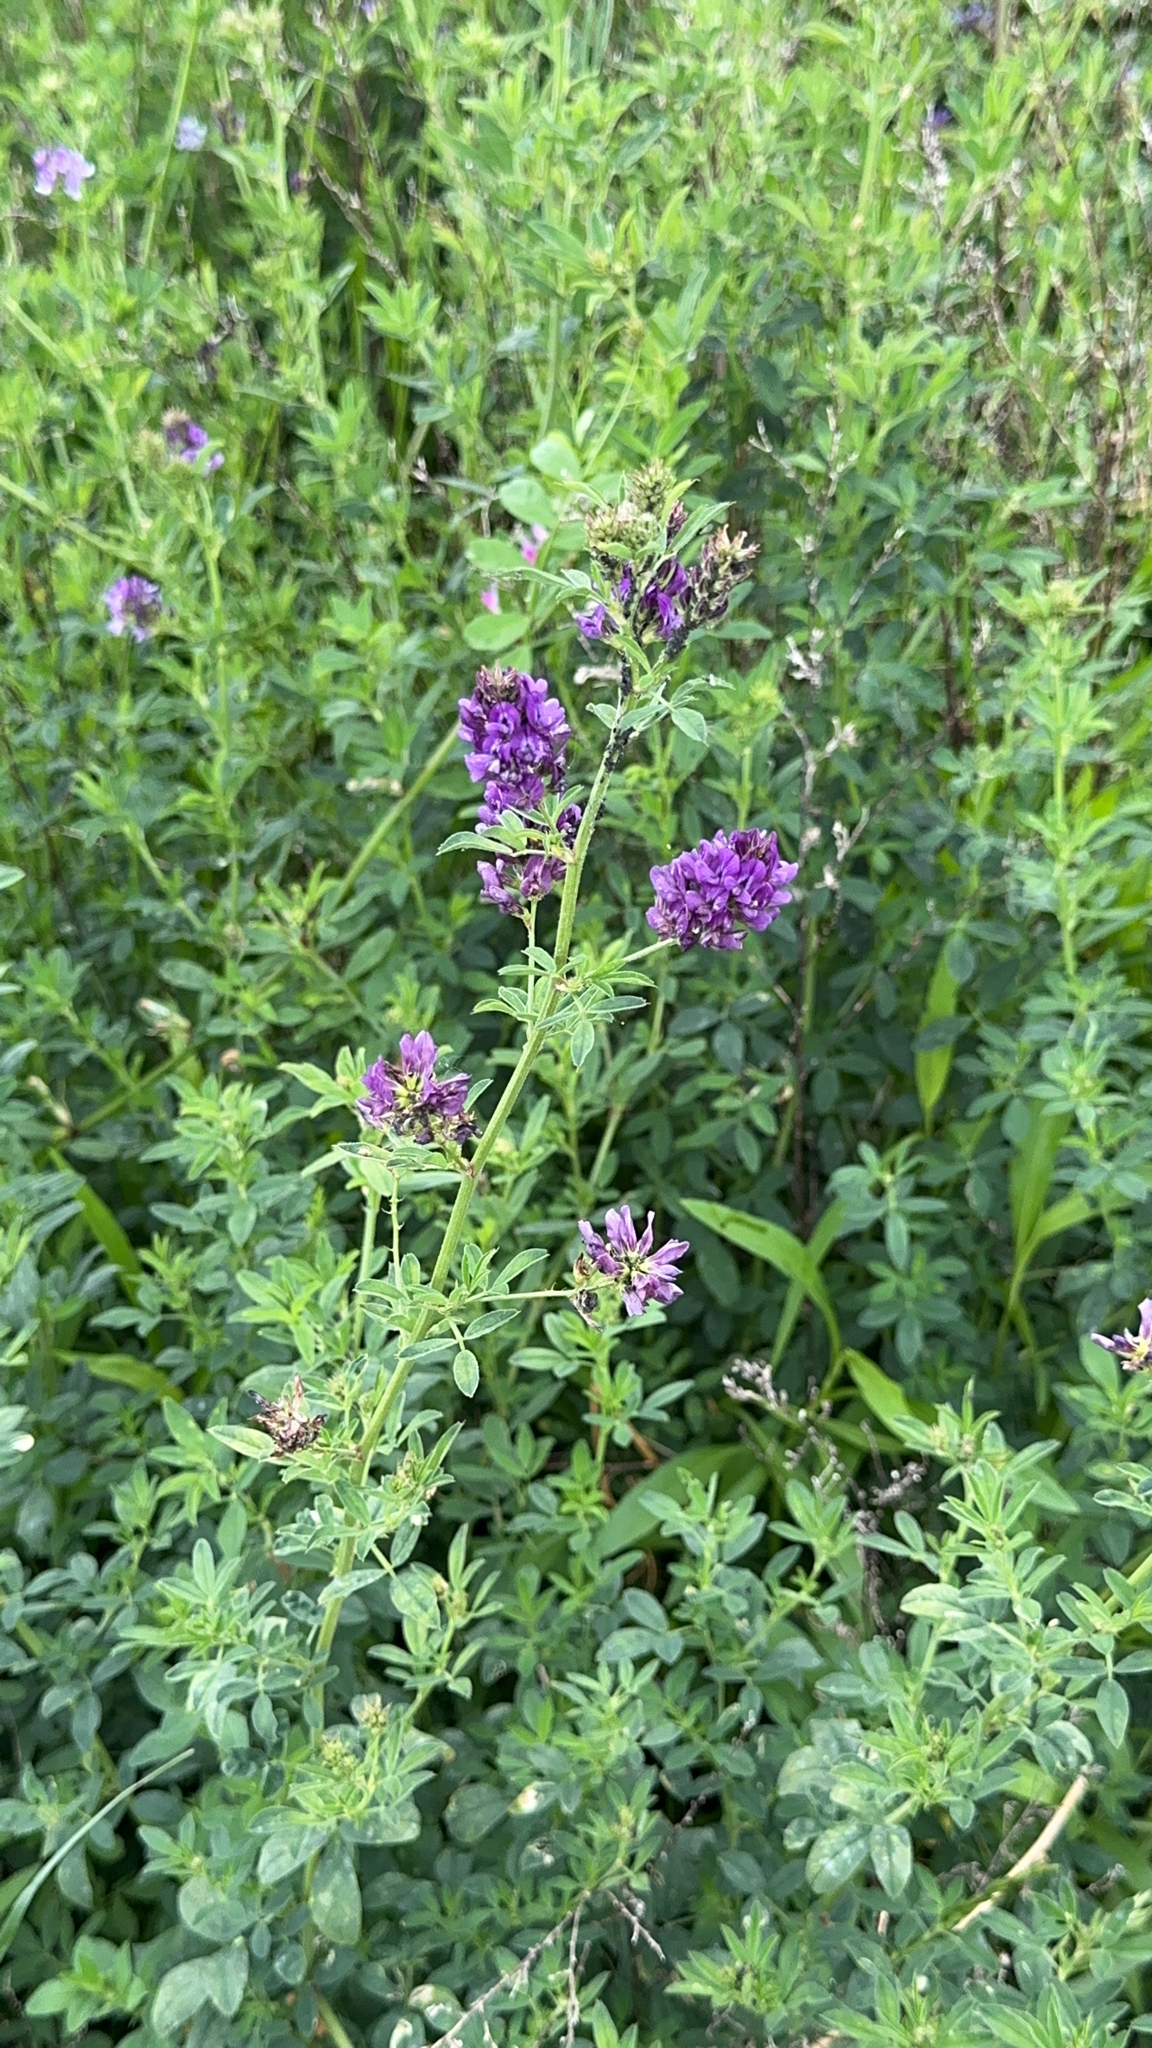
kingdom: Plantae
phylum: Tracheophyta
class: Magnoliopsida
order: Fabales
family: Fabaceae
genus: Medicago
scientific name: Medicago sativa
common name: Alfalfa
